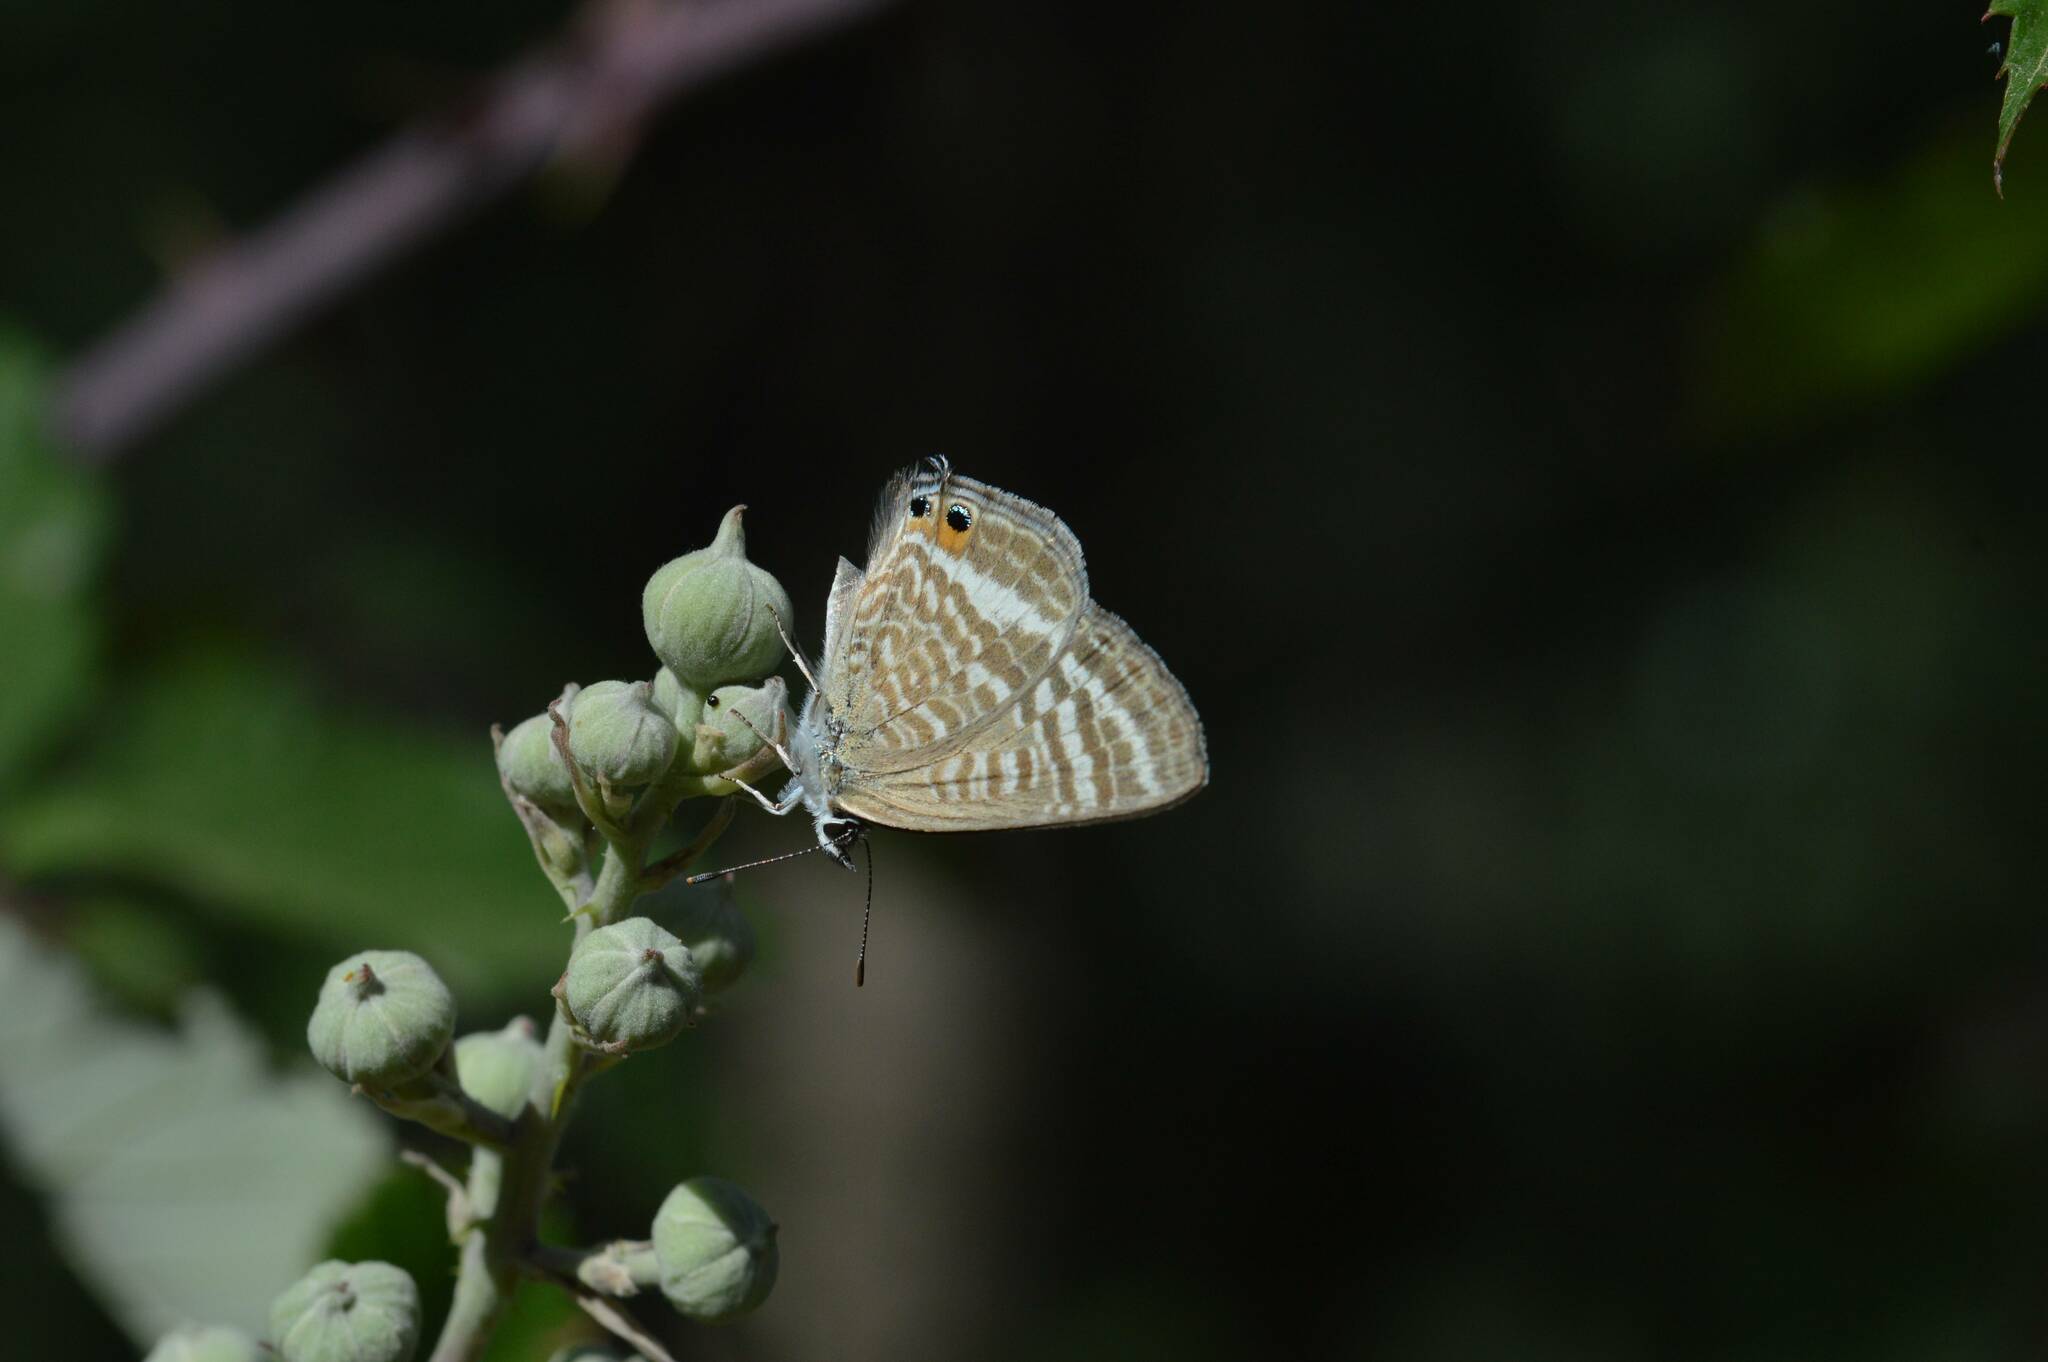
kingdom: Animalia
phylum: Arthropoda
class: Insecta
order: Lepidoptera
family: Lycaenidae
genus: Lampides
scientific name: Lampides boeticus
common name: Long-tailed blue
